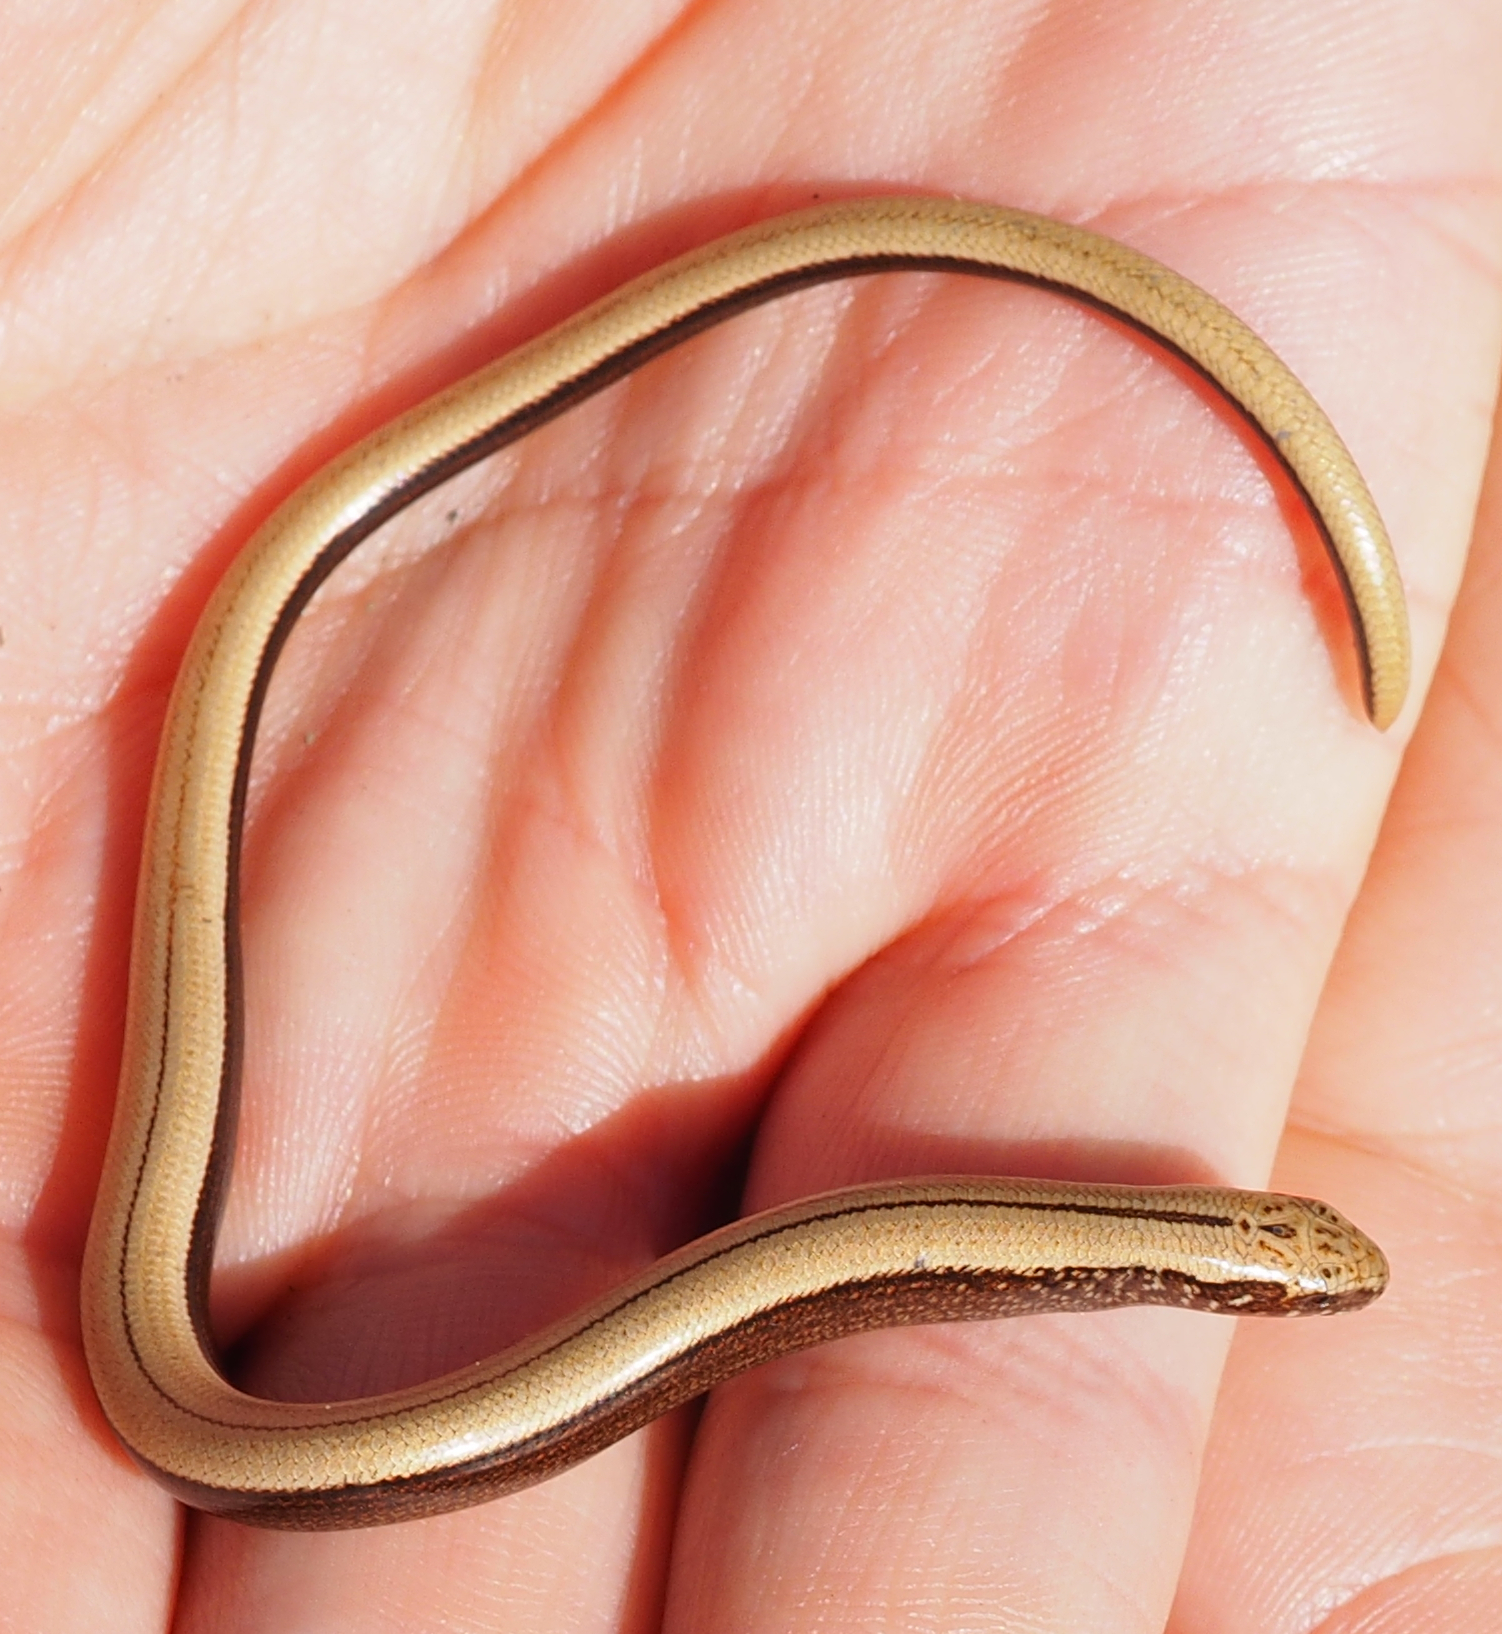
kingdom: Animalia
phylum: Chordata
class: Squamata
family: Anguidae
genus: Anguis
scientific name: Anguis fragilis
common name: Slow worm
